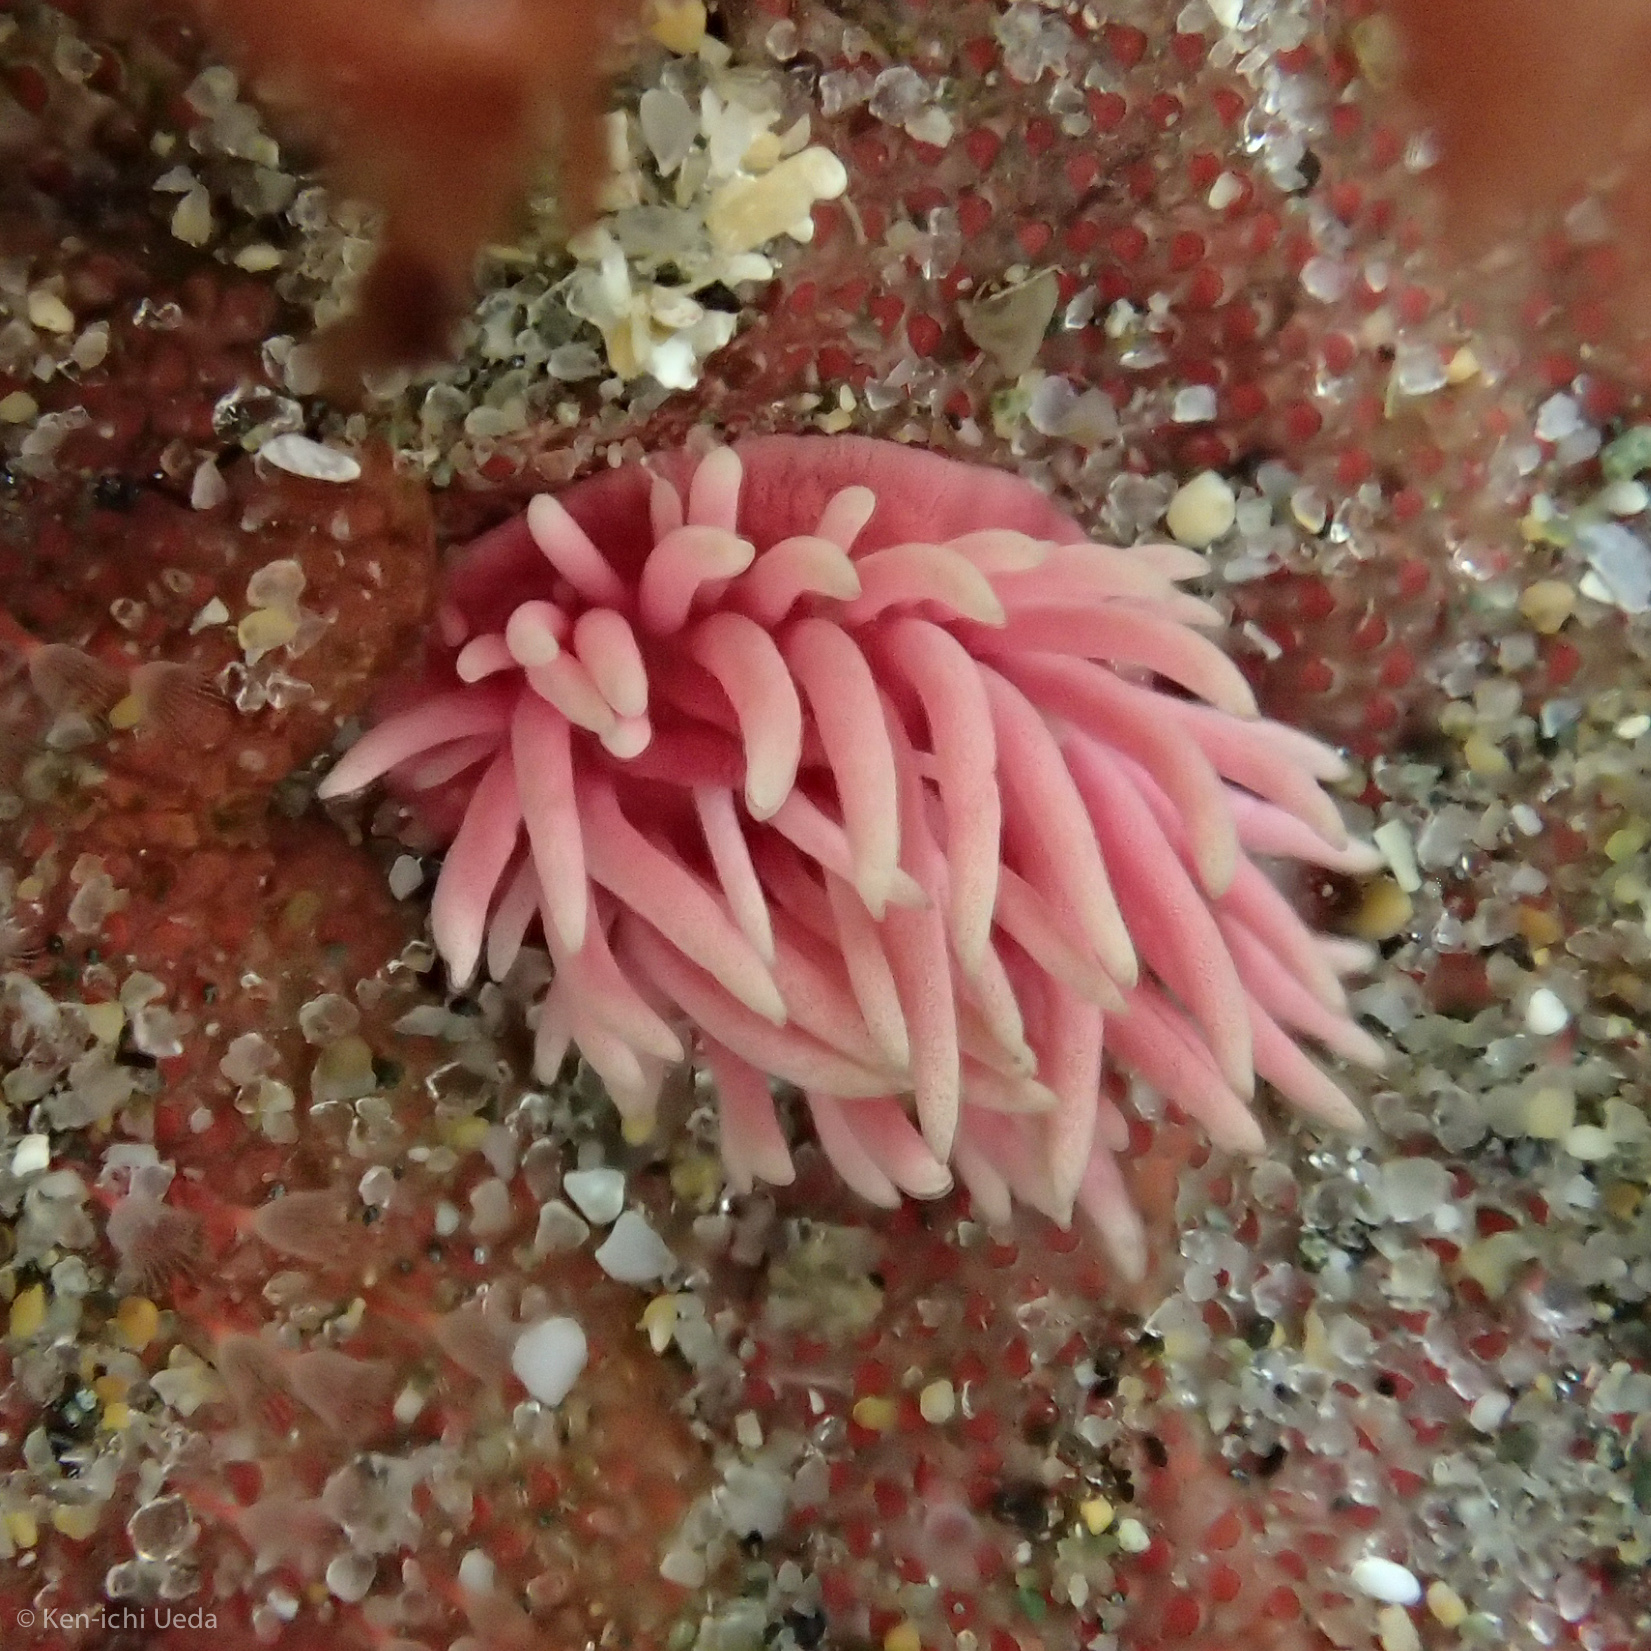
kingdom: Animalia
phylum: Mollusca
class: Gastropoda
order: Nudibranchia
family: Goniodorididae
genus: Okenia
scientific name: Okenia
